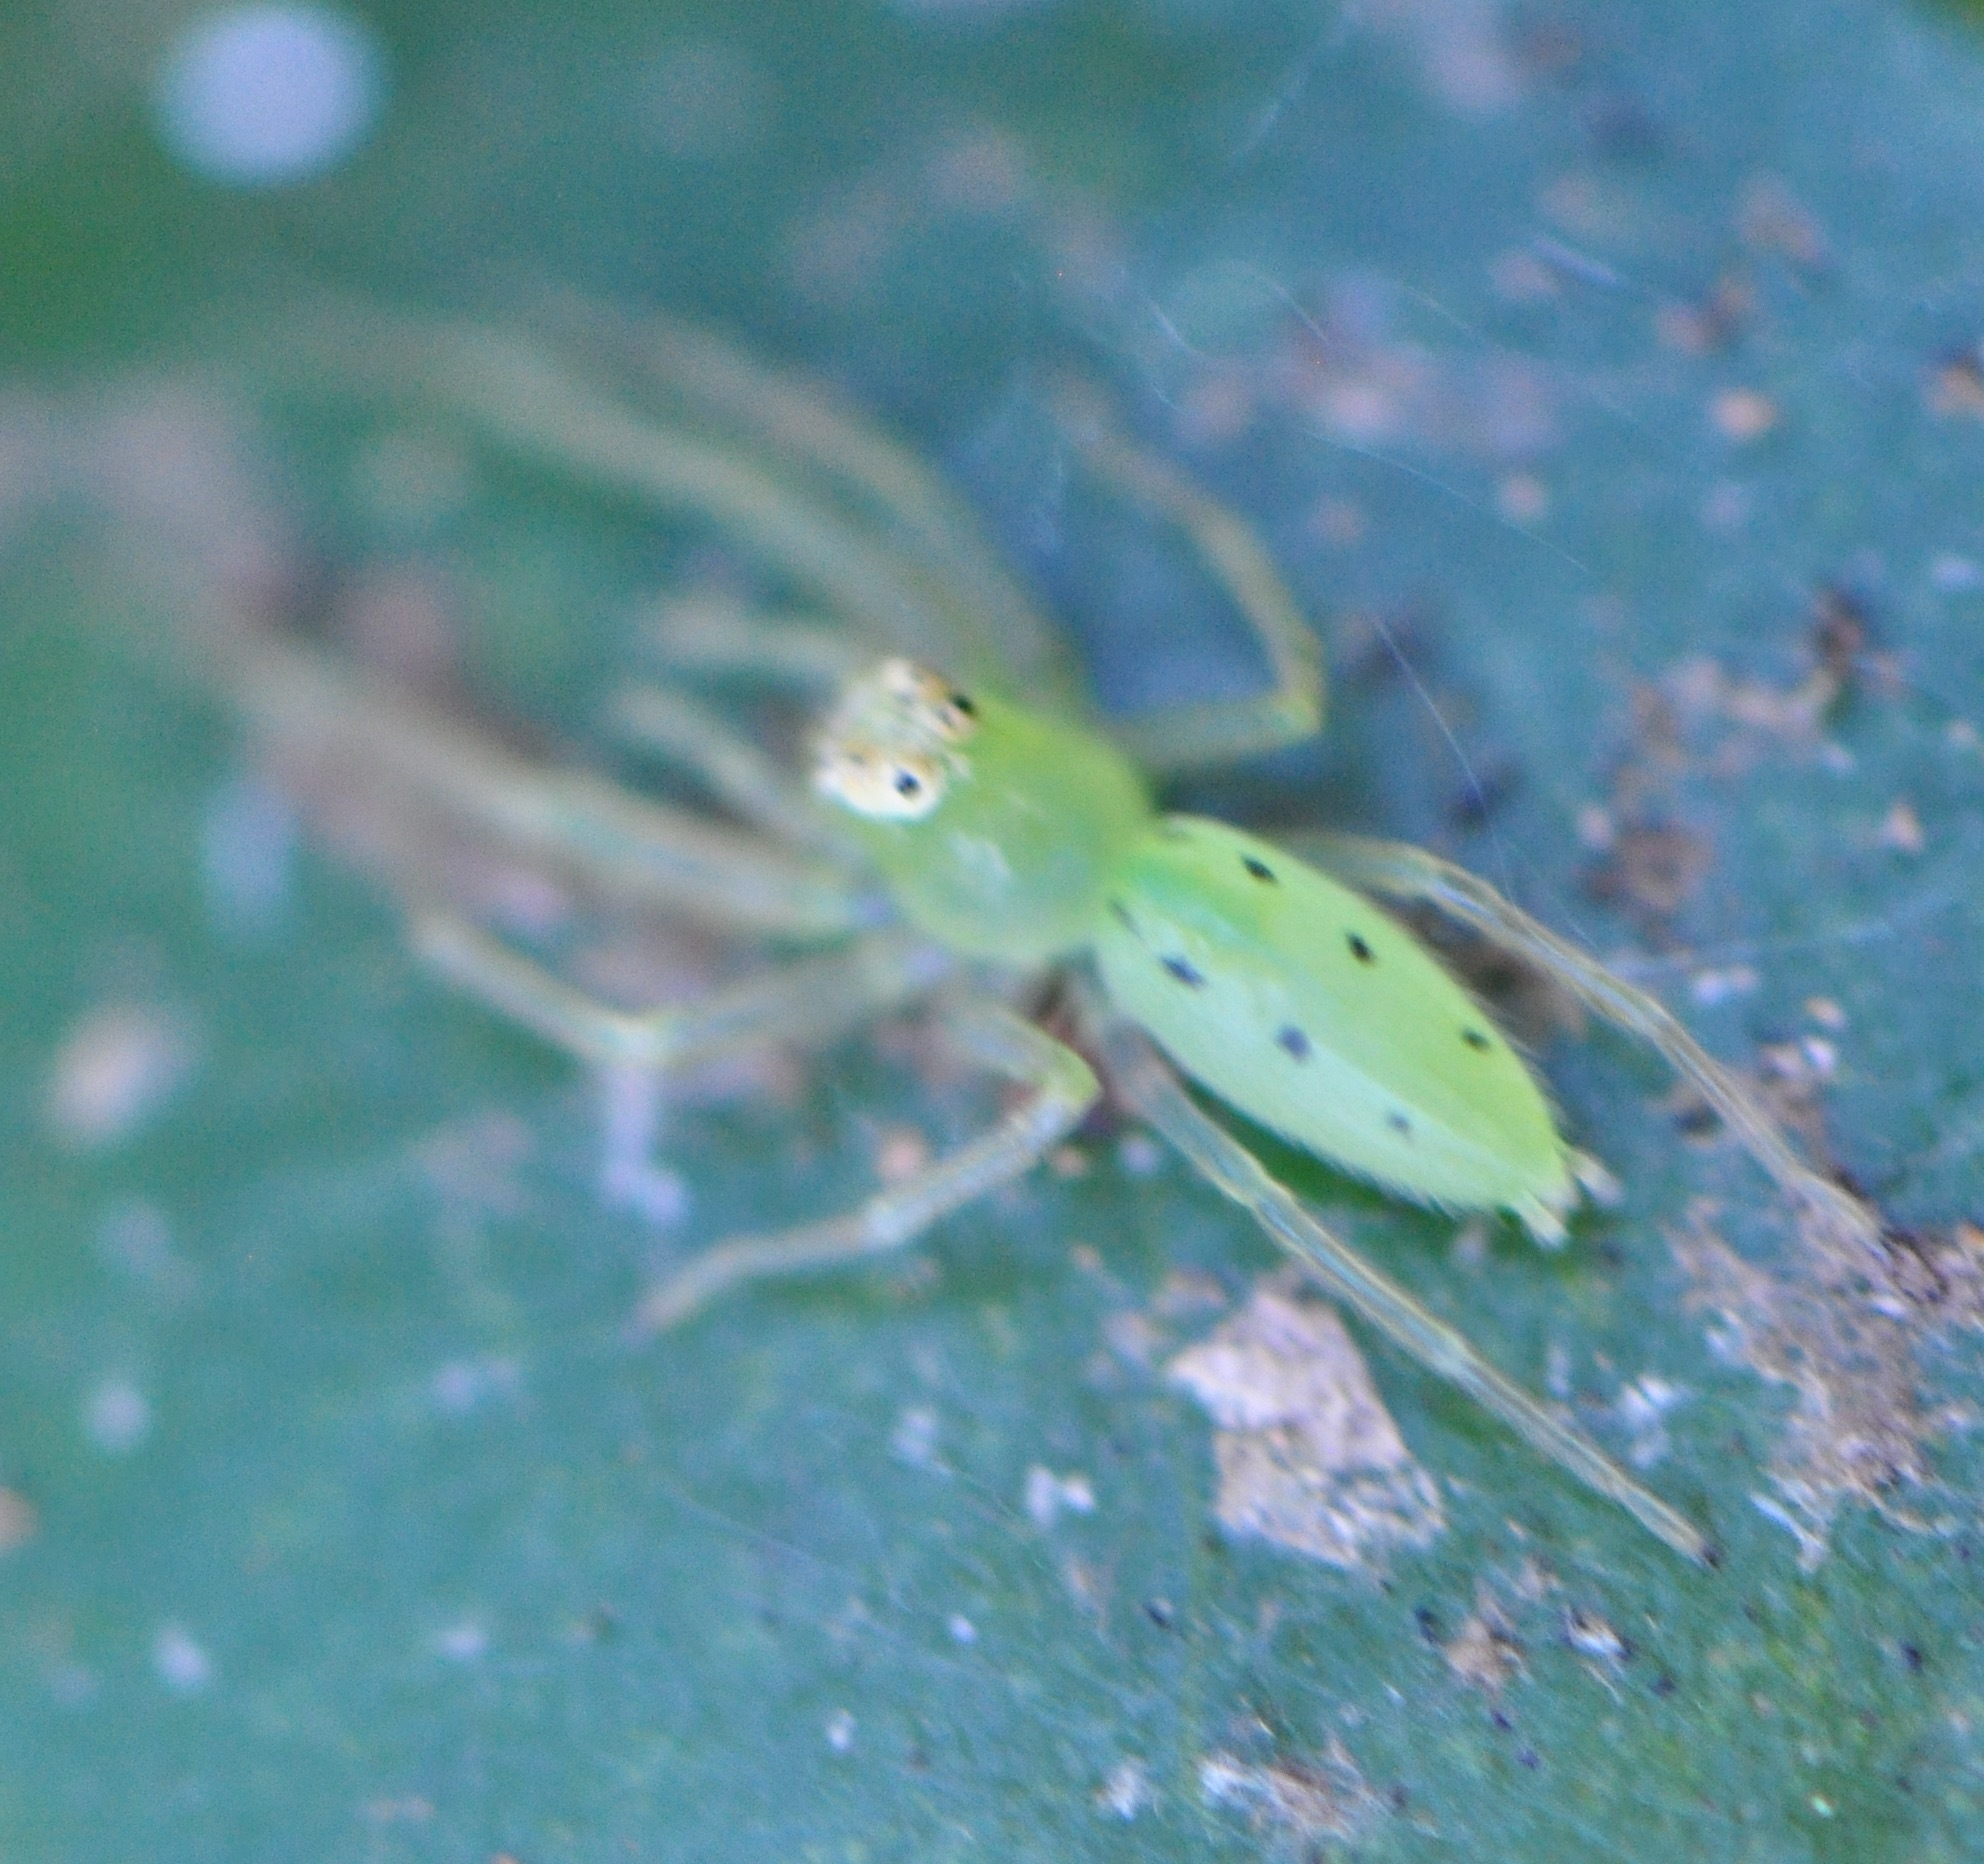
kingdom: Animalia
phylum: Arthropoda
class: Arachnida
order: Araneae
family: Salticidae
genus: Lyssomanes
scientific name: Lyssomanes viridis
